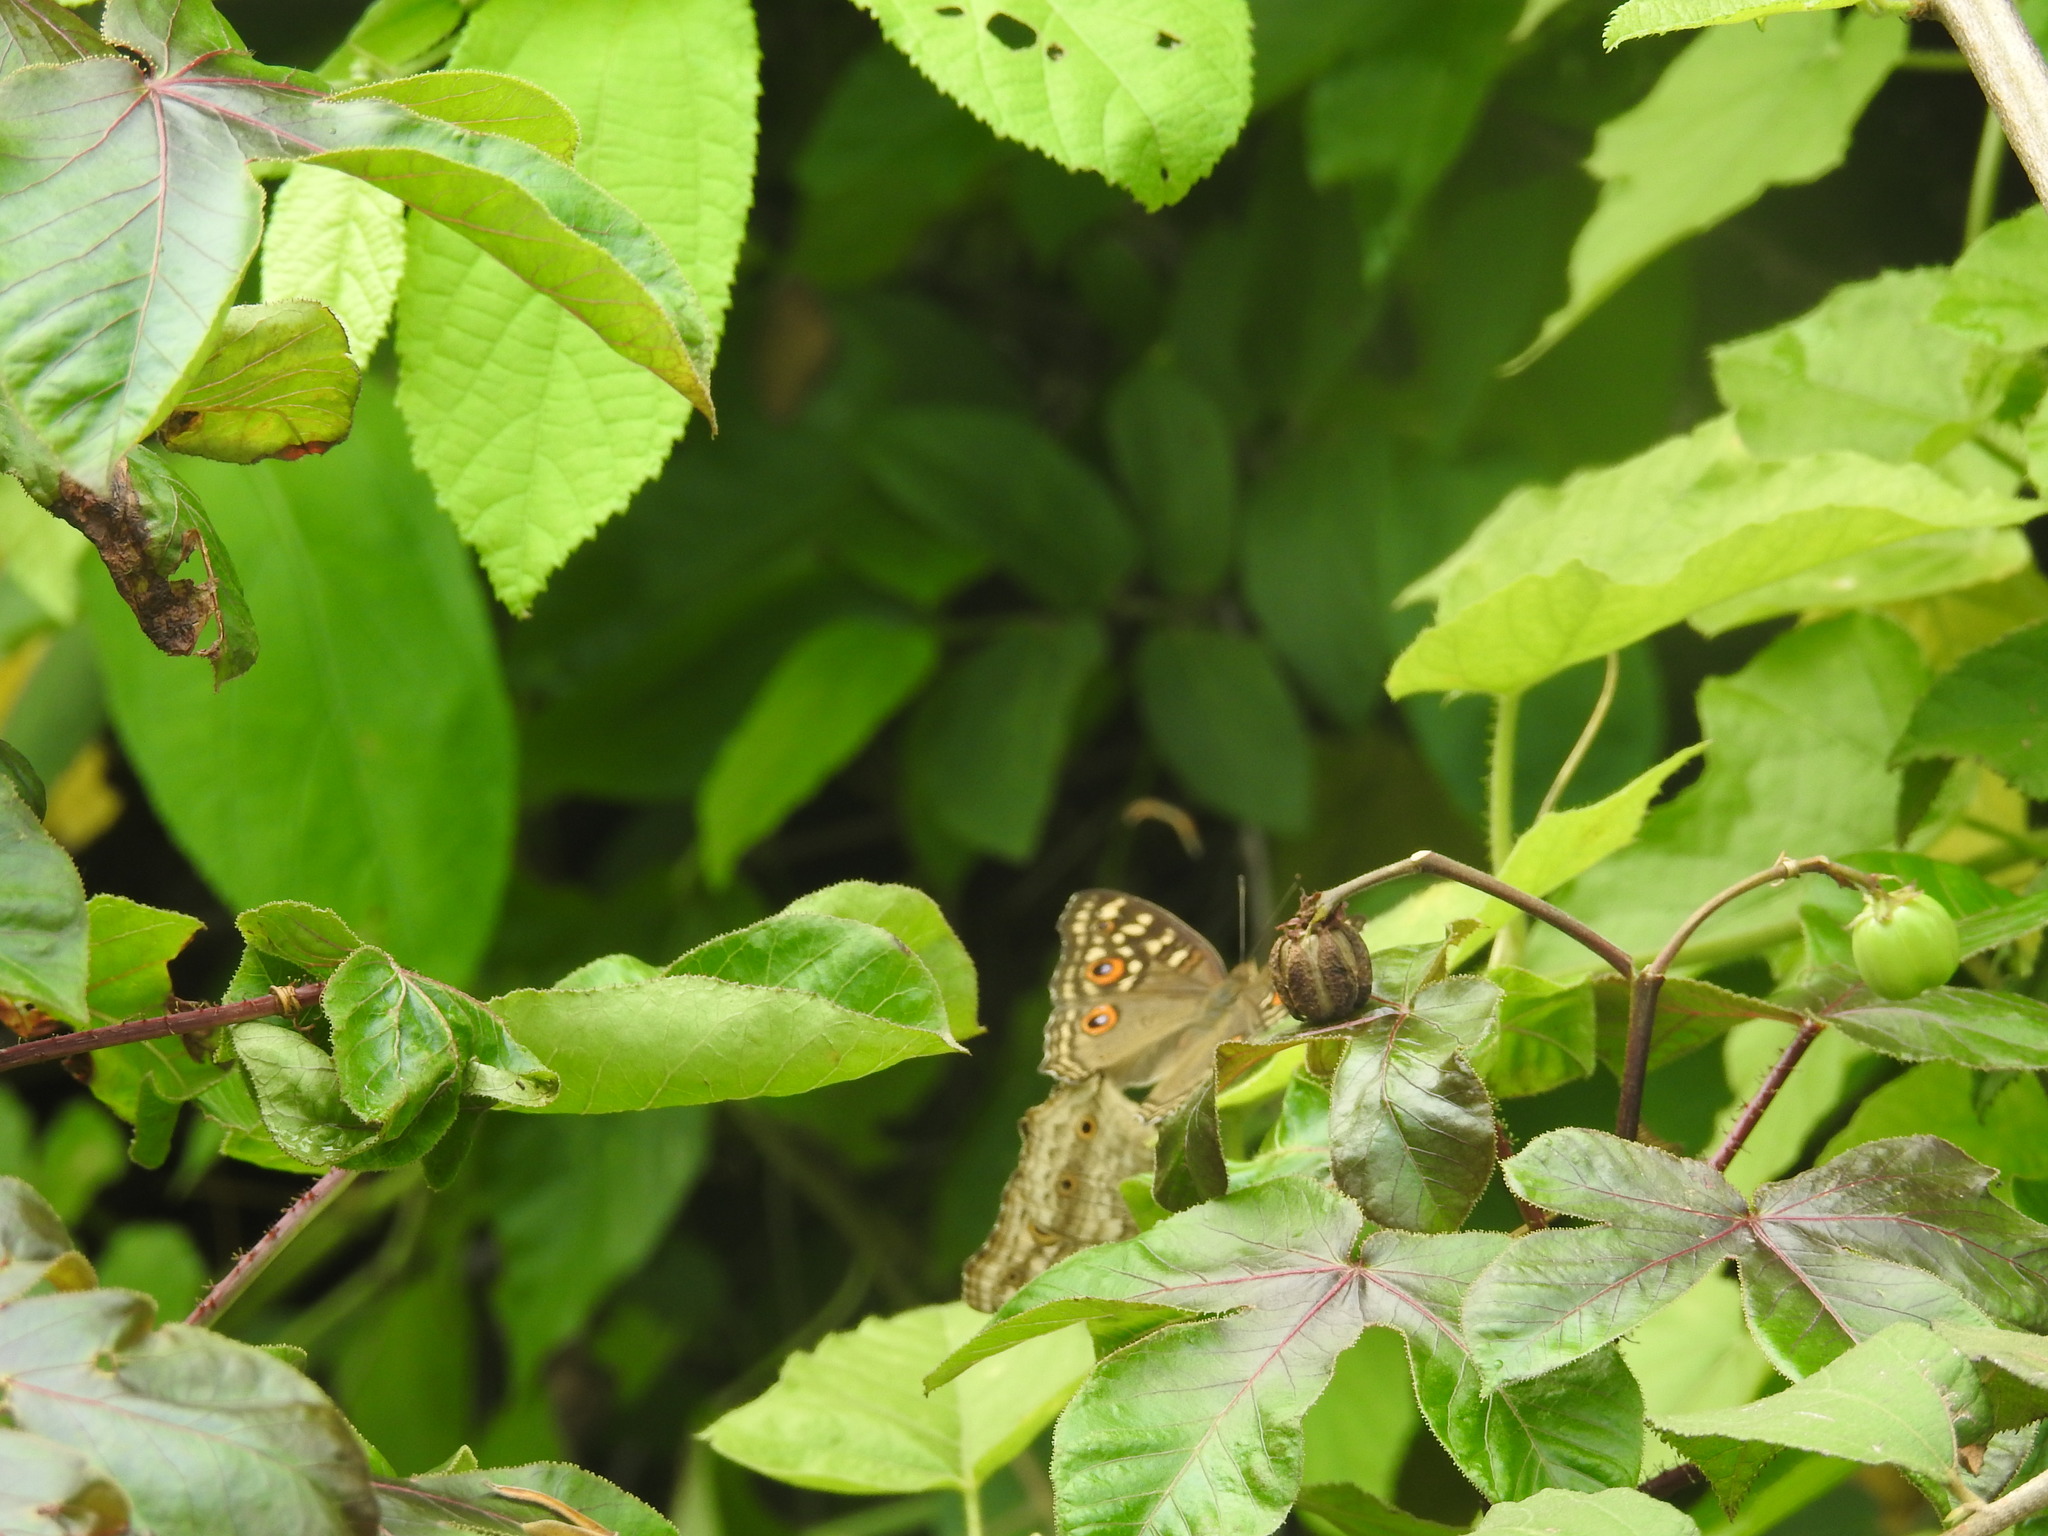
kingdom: Animalia
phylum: Arthropoda
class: Insecta
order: Lepidoptera
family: Nymphalidae
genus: Junonia
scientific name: Junonia lemonias
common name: Lemon pansy
